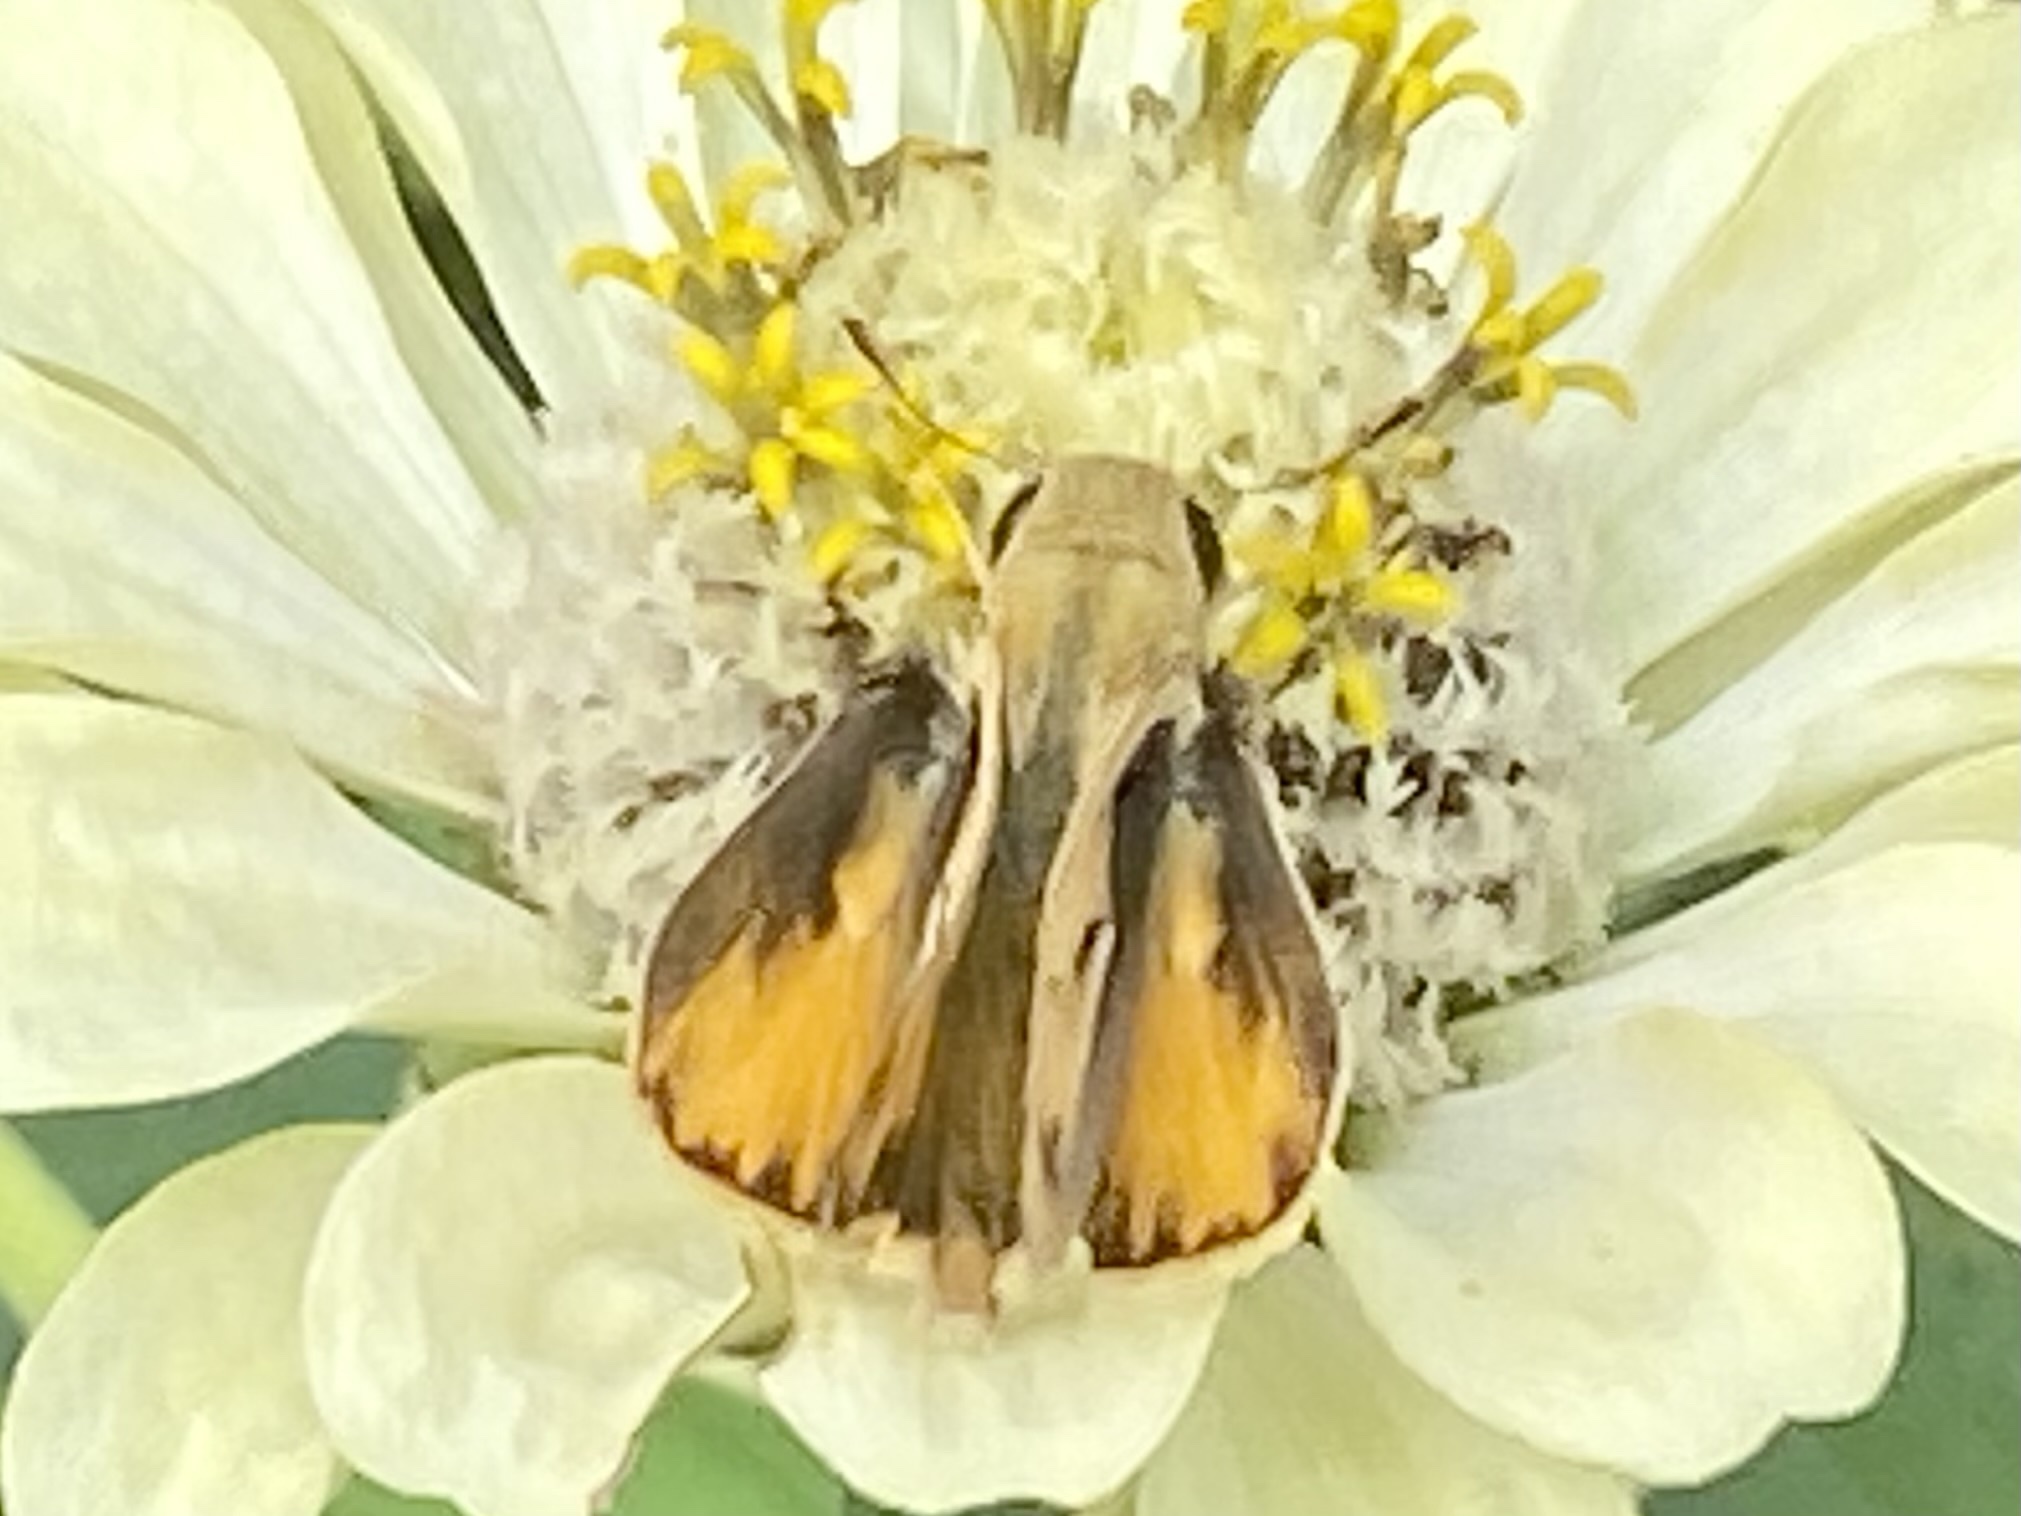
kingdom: Animalia
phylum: Arthropoda
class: Insecta
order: Lepidoptera
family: Hesperiidae
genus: Hylephila
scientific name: Hylephila phyleus
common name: Fiery skipper
